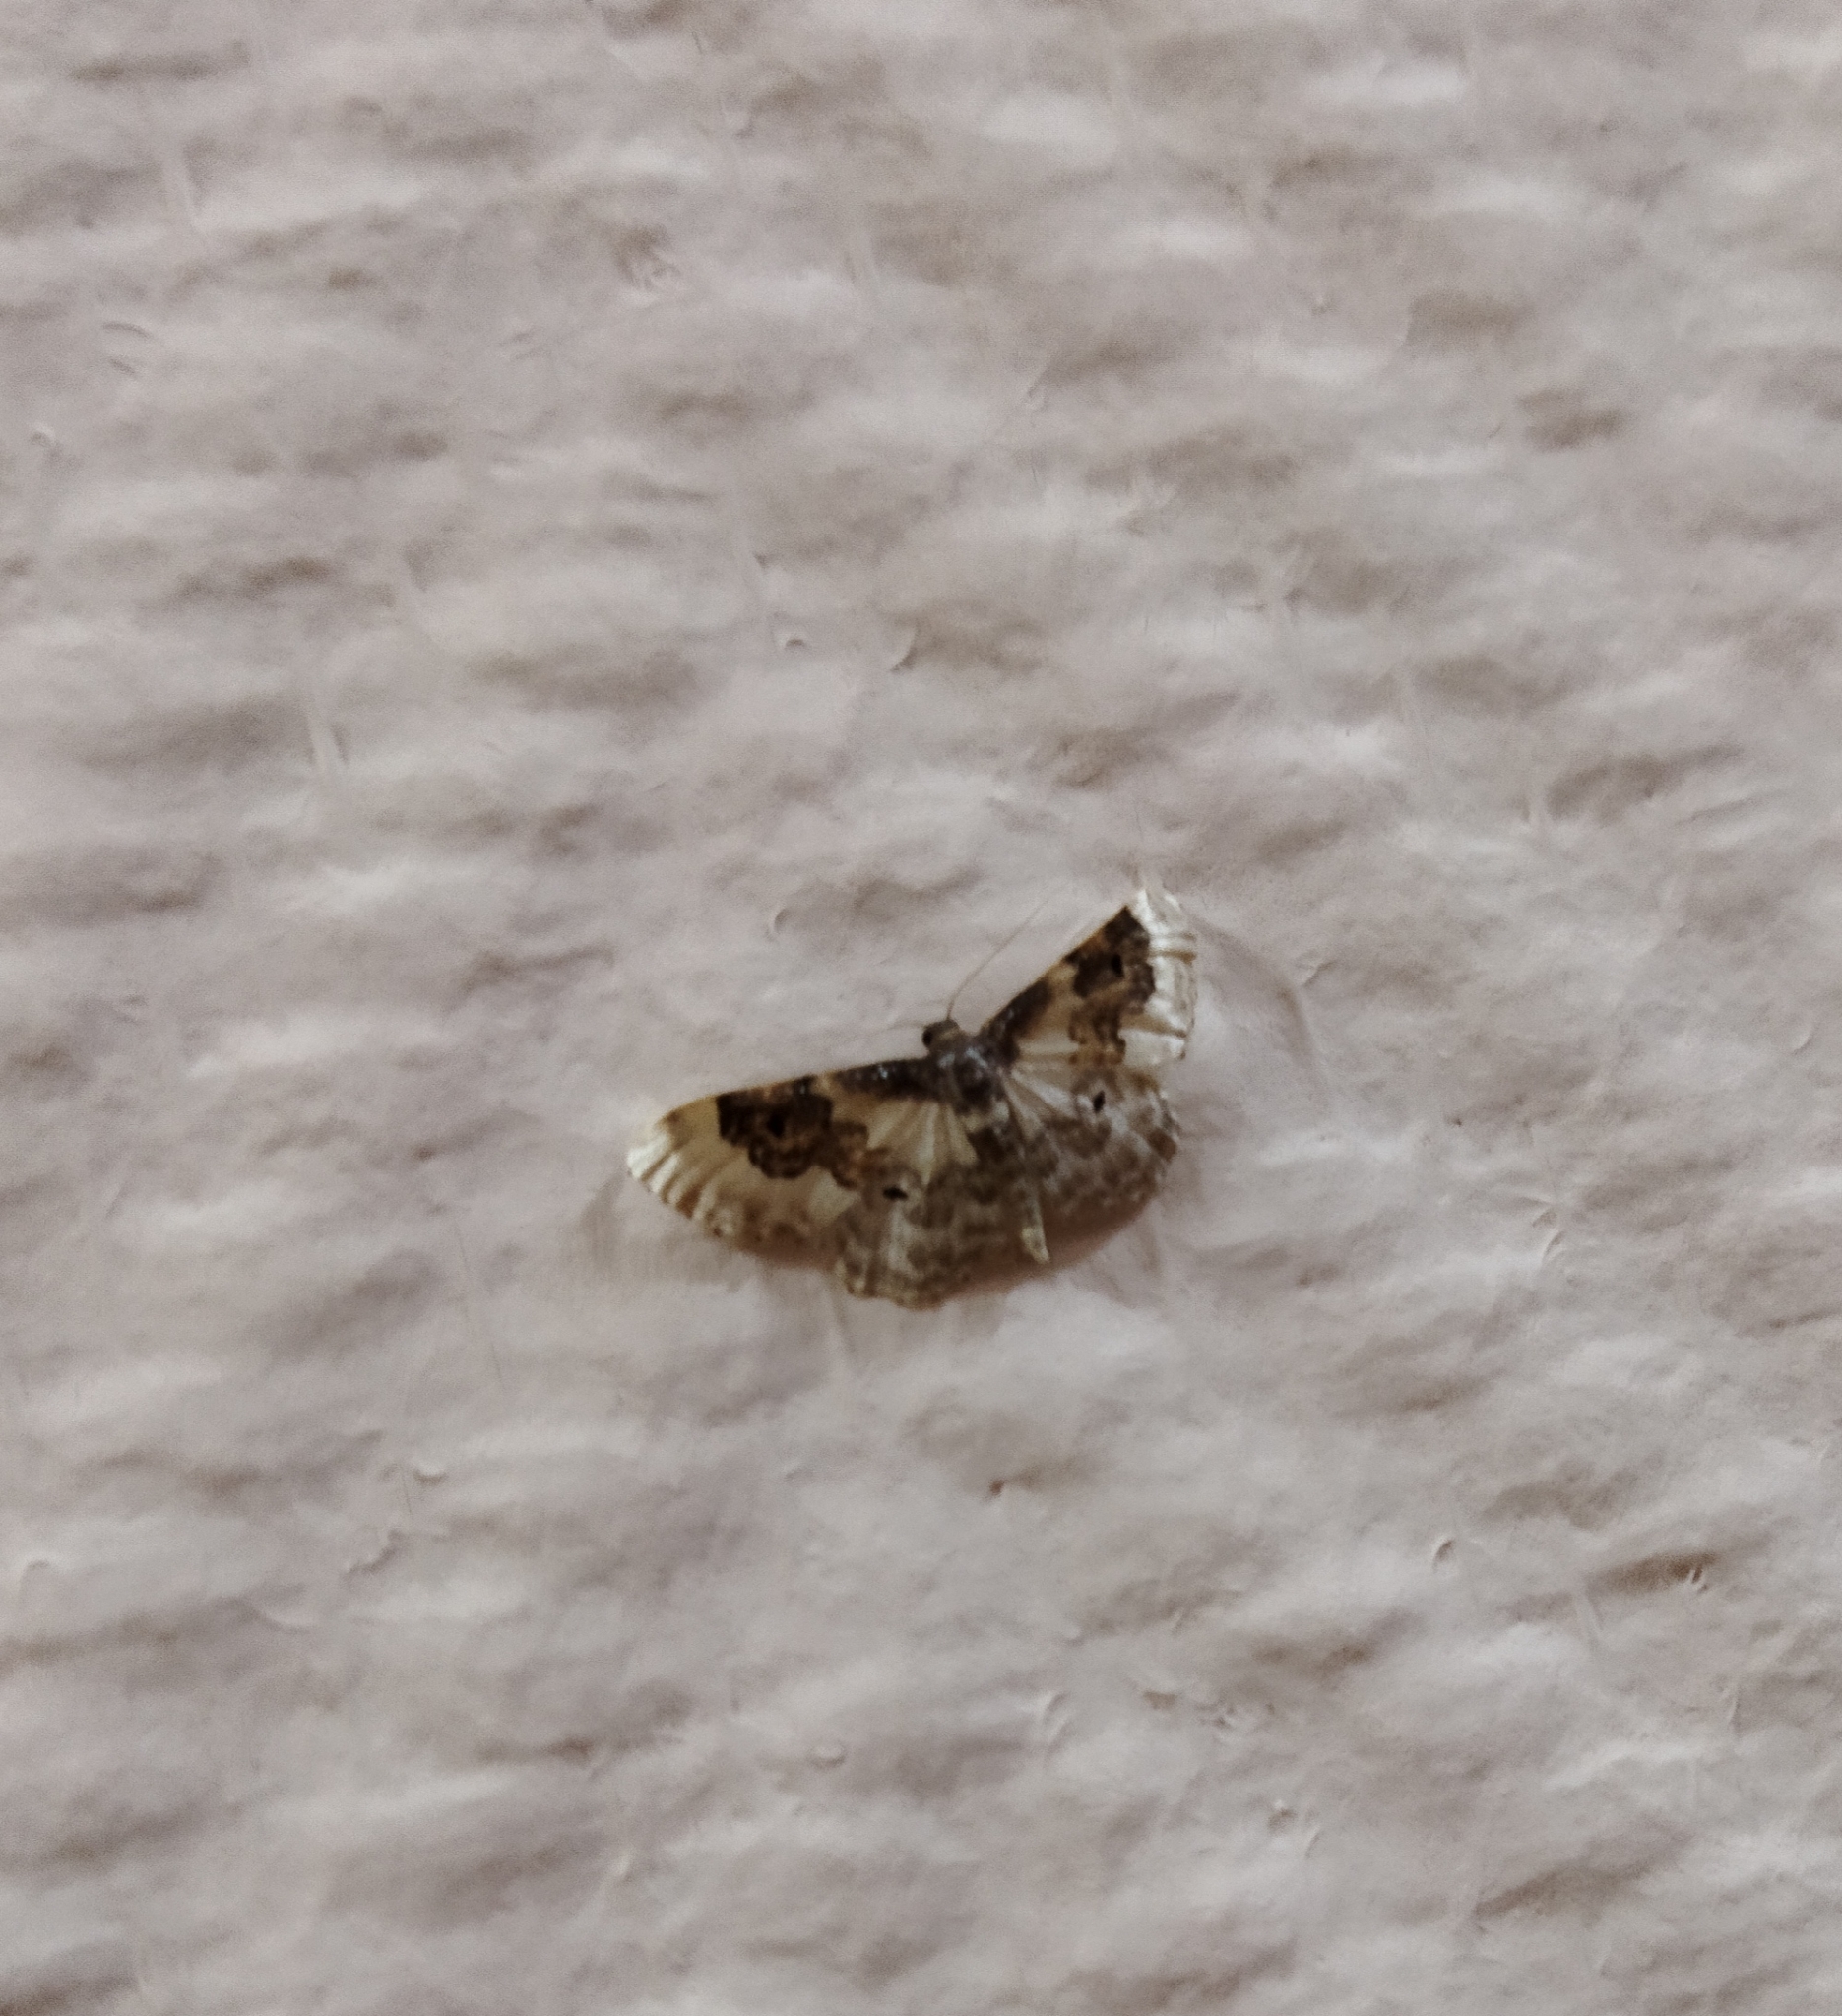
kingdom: Animalia
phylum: Arthropoda
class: Insecta
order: Lepidoptera
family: Geometridae
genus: Idaea
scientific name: Idaea rusticata
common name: Least carpet
